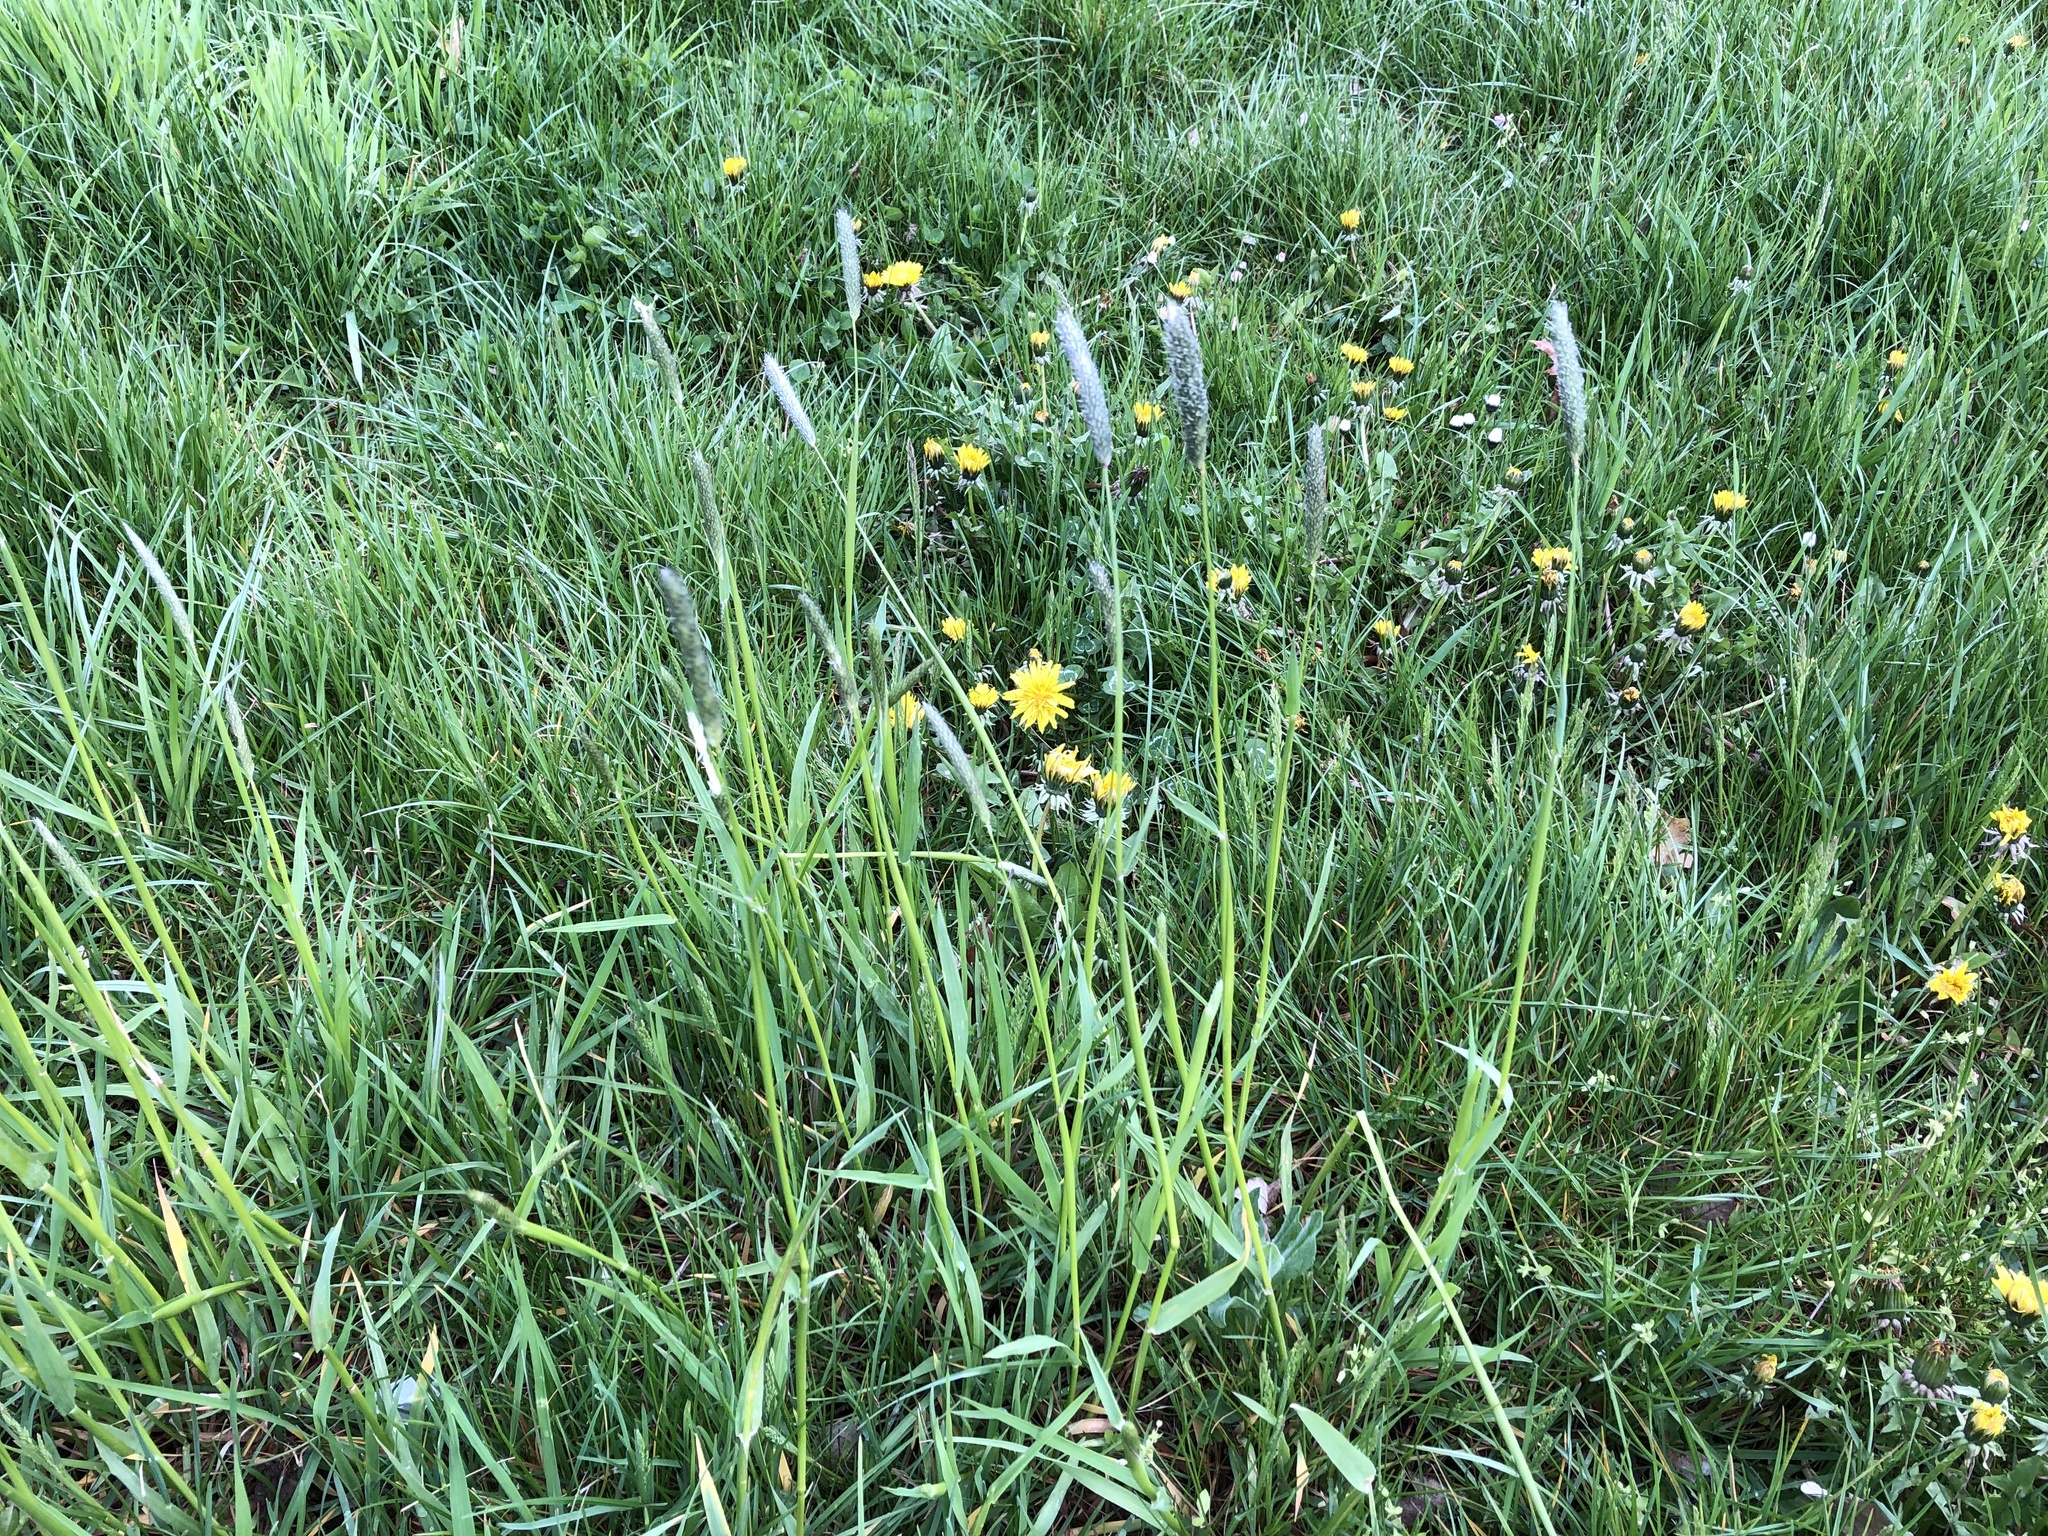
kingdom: Plantae
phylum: Tracheophyta
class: Liliopsida
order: Poales
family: Poaceae
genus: Alopecurus
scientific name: Alopecurus pratensis
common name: Meadow foxtail
